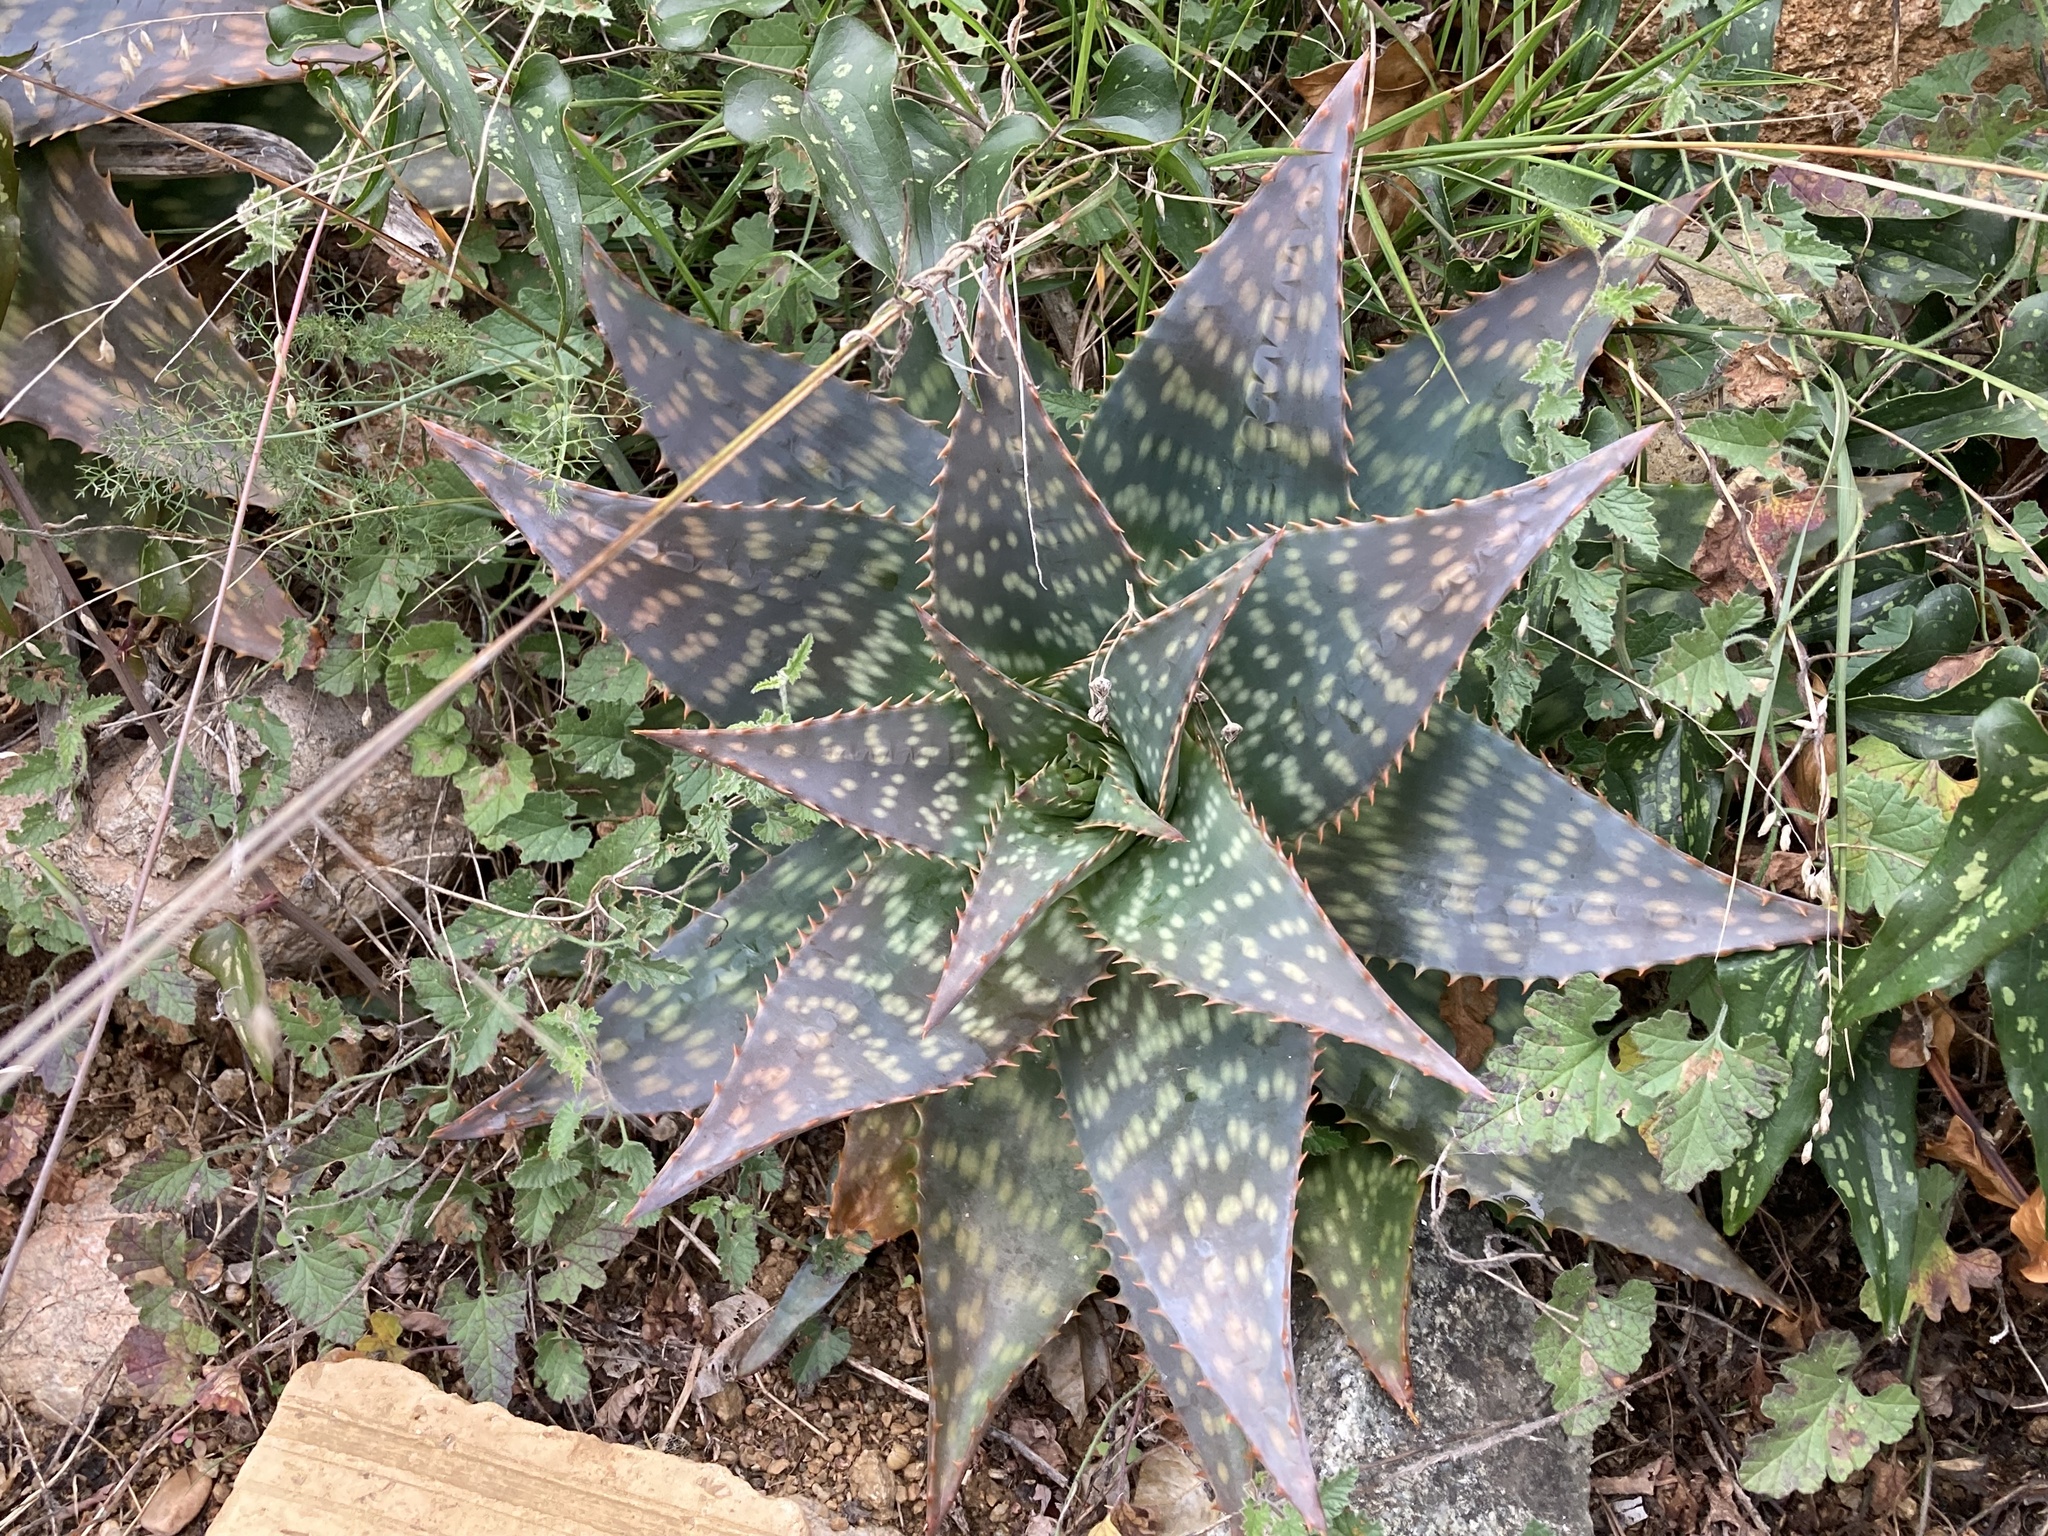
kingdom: Plantae
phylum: Tracheophyta
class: Liliopsida
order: Asparagales
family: Asphodelaceae
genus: Aloe
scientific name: Aloe maculata
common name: Broadleaf aloe
